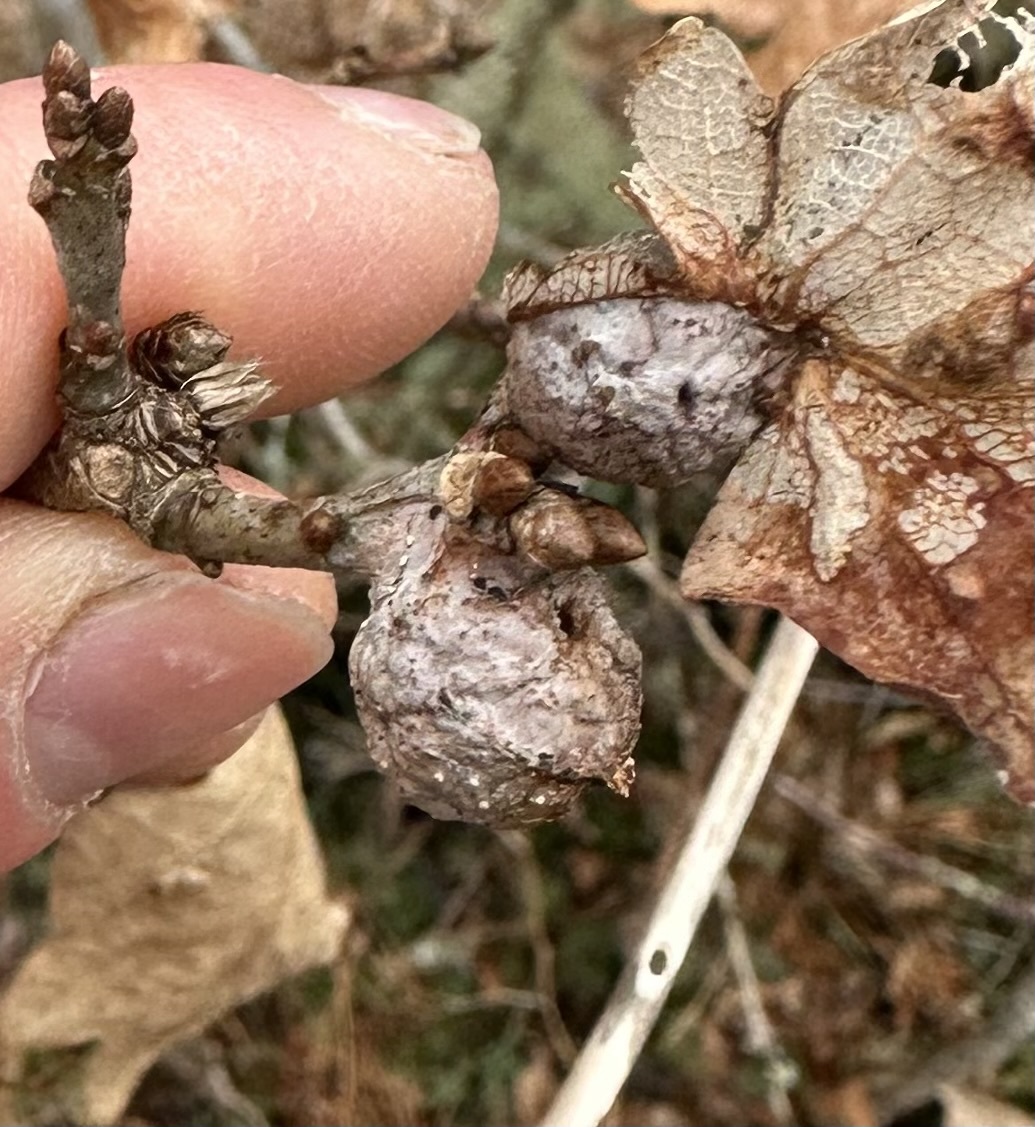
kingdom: Animalia
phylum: Arthropoda
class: Insecta
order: Hymenoptera
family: Cynipidae
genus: Andricus
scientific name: Andricus
